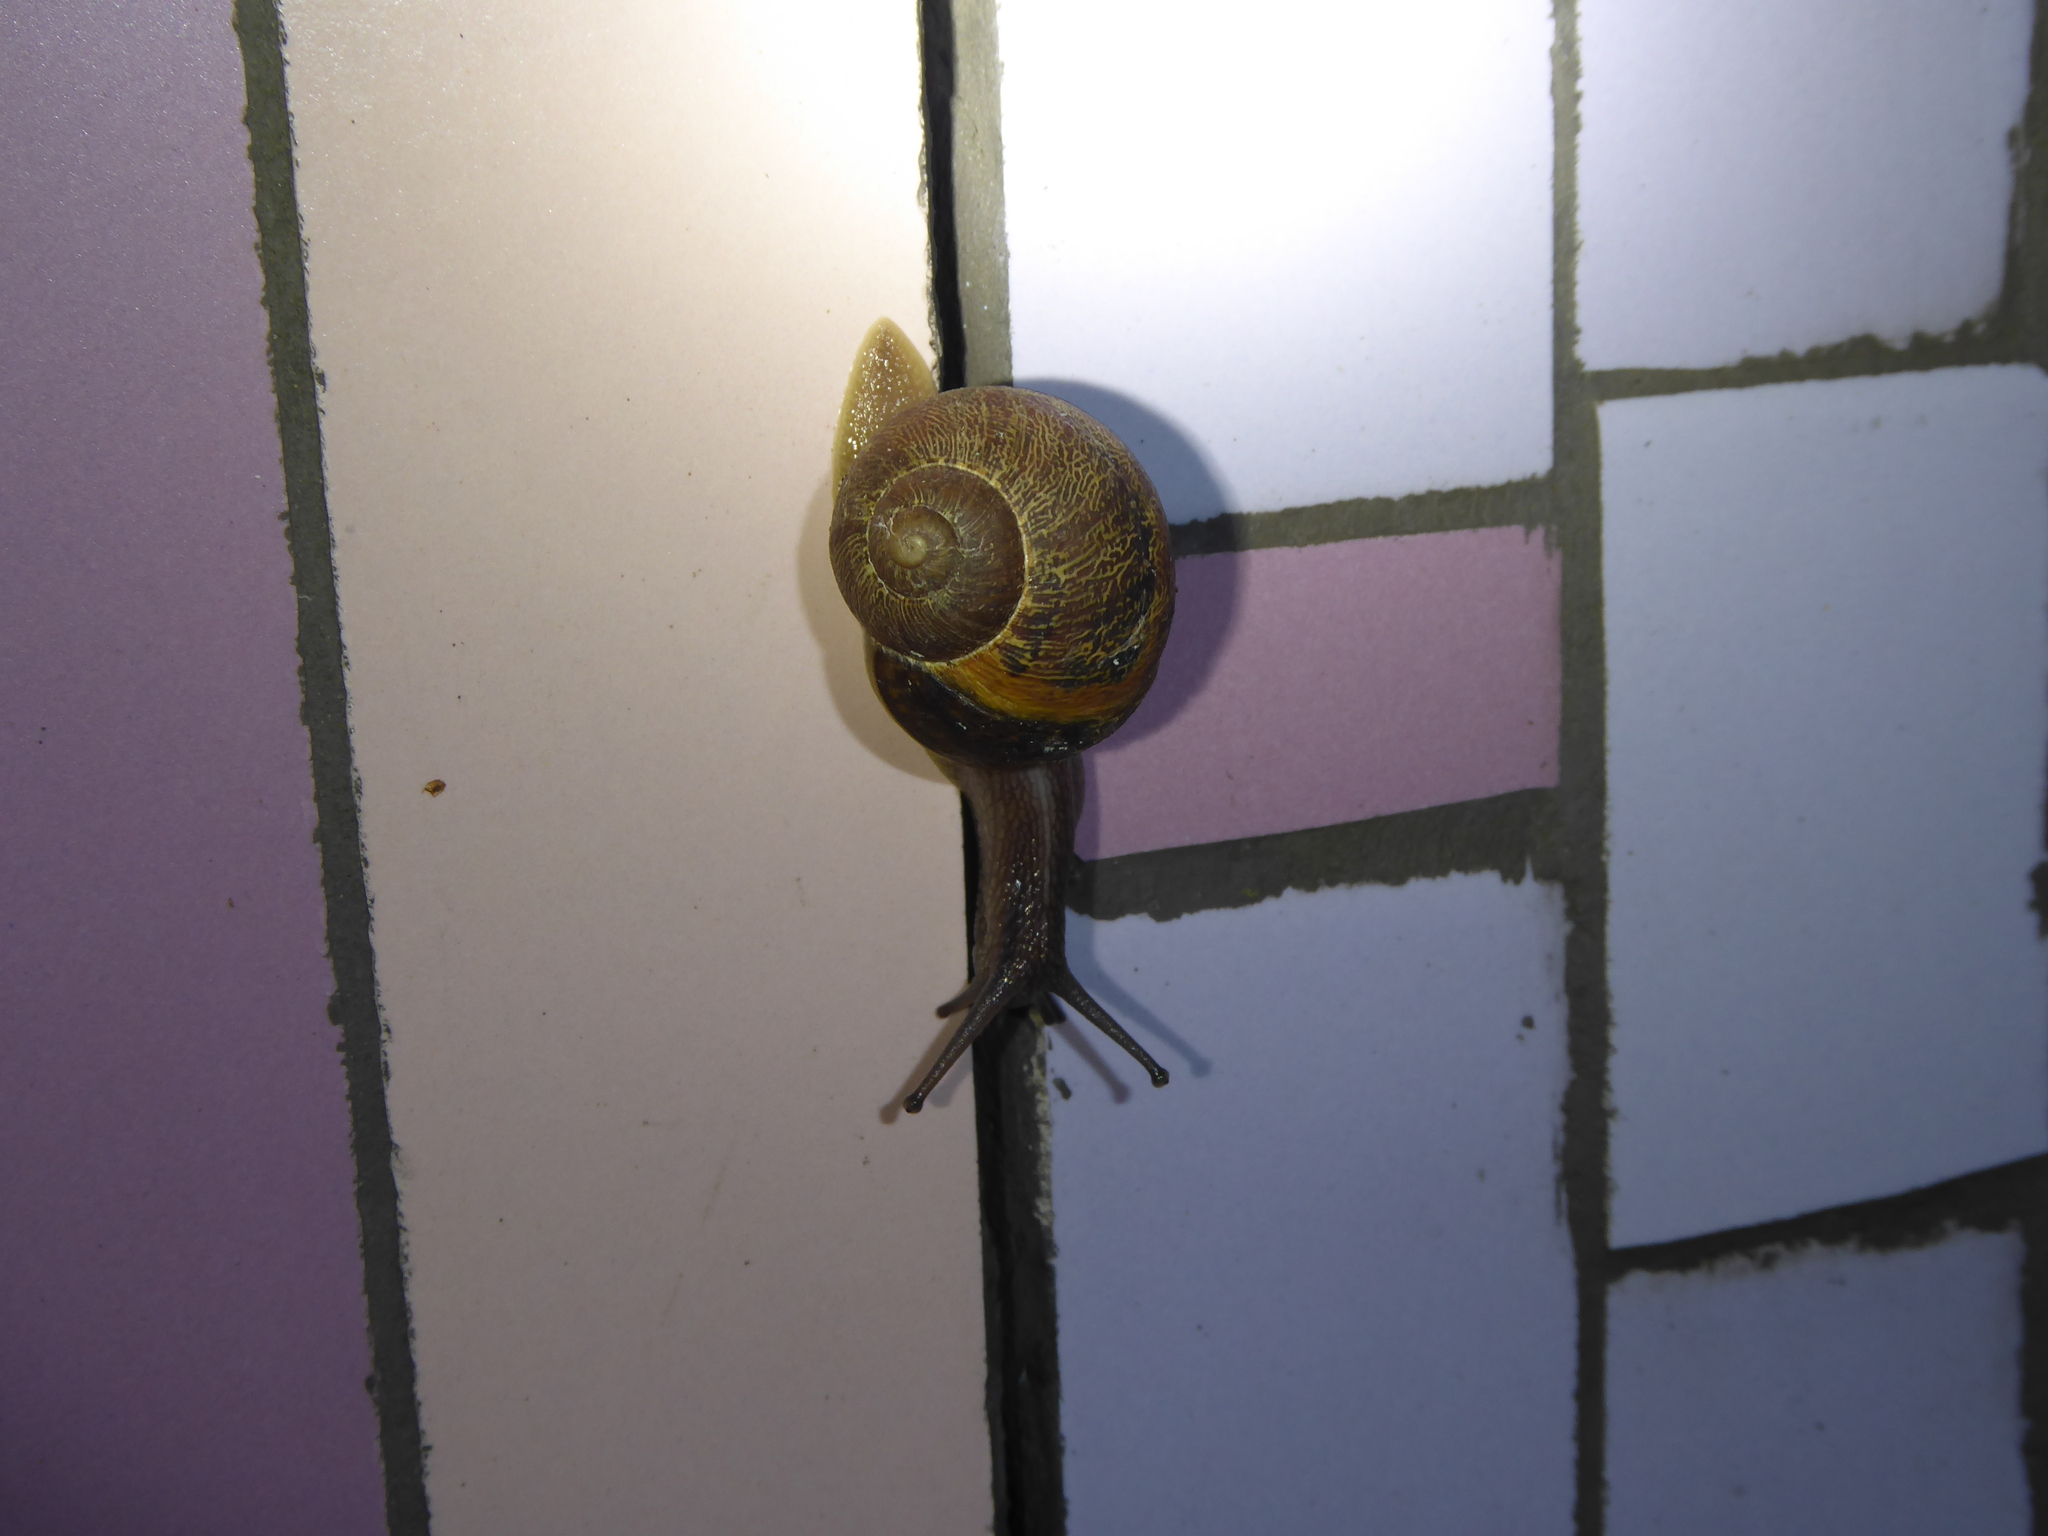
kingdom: Animalia
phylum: Mollusca
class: Gastropoda
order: Stylommatophora
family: Helicidae
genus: Cornu
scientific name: Cornu aspersum
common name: Brown garden snail
